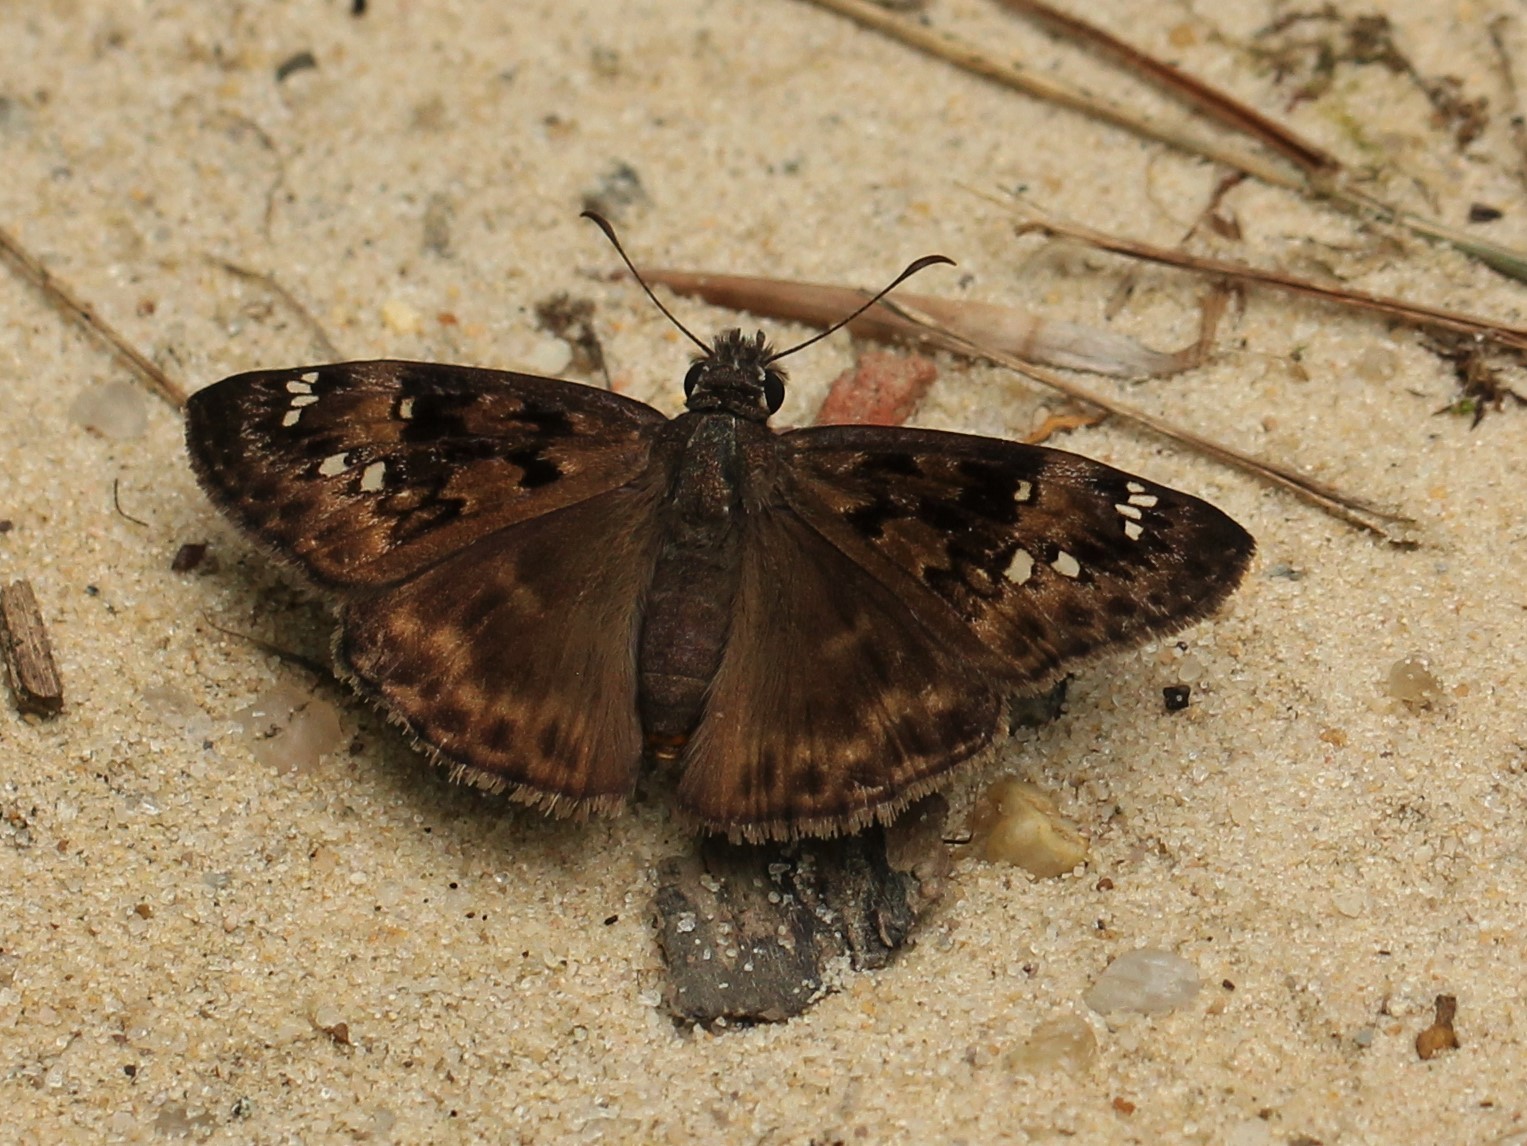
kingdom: Animalia
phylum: Arthropoda
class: Insecta
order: Lepidoptera
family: Hesperiidae
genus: Erynnis
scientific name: Erynnis horatius
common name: Horace's duskywing
